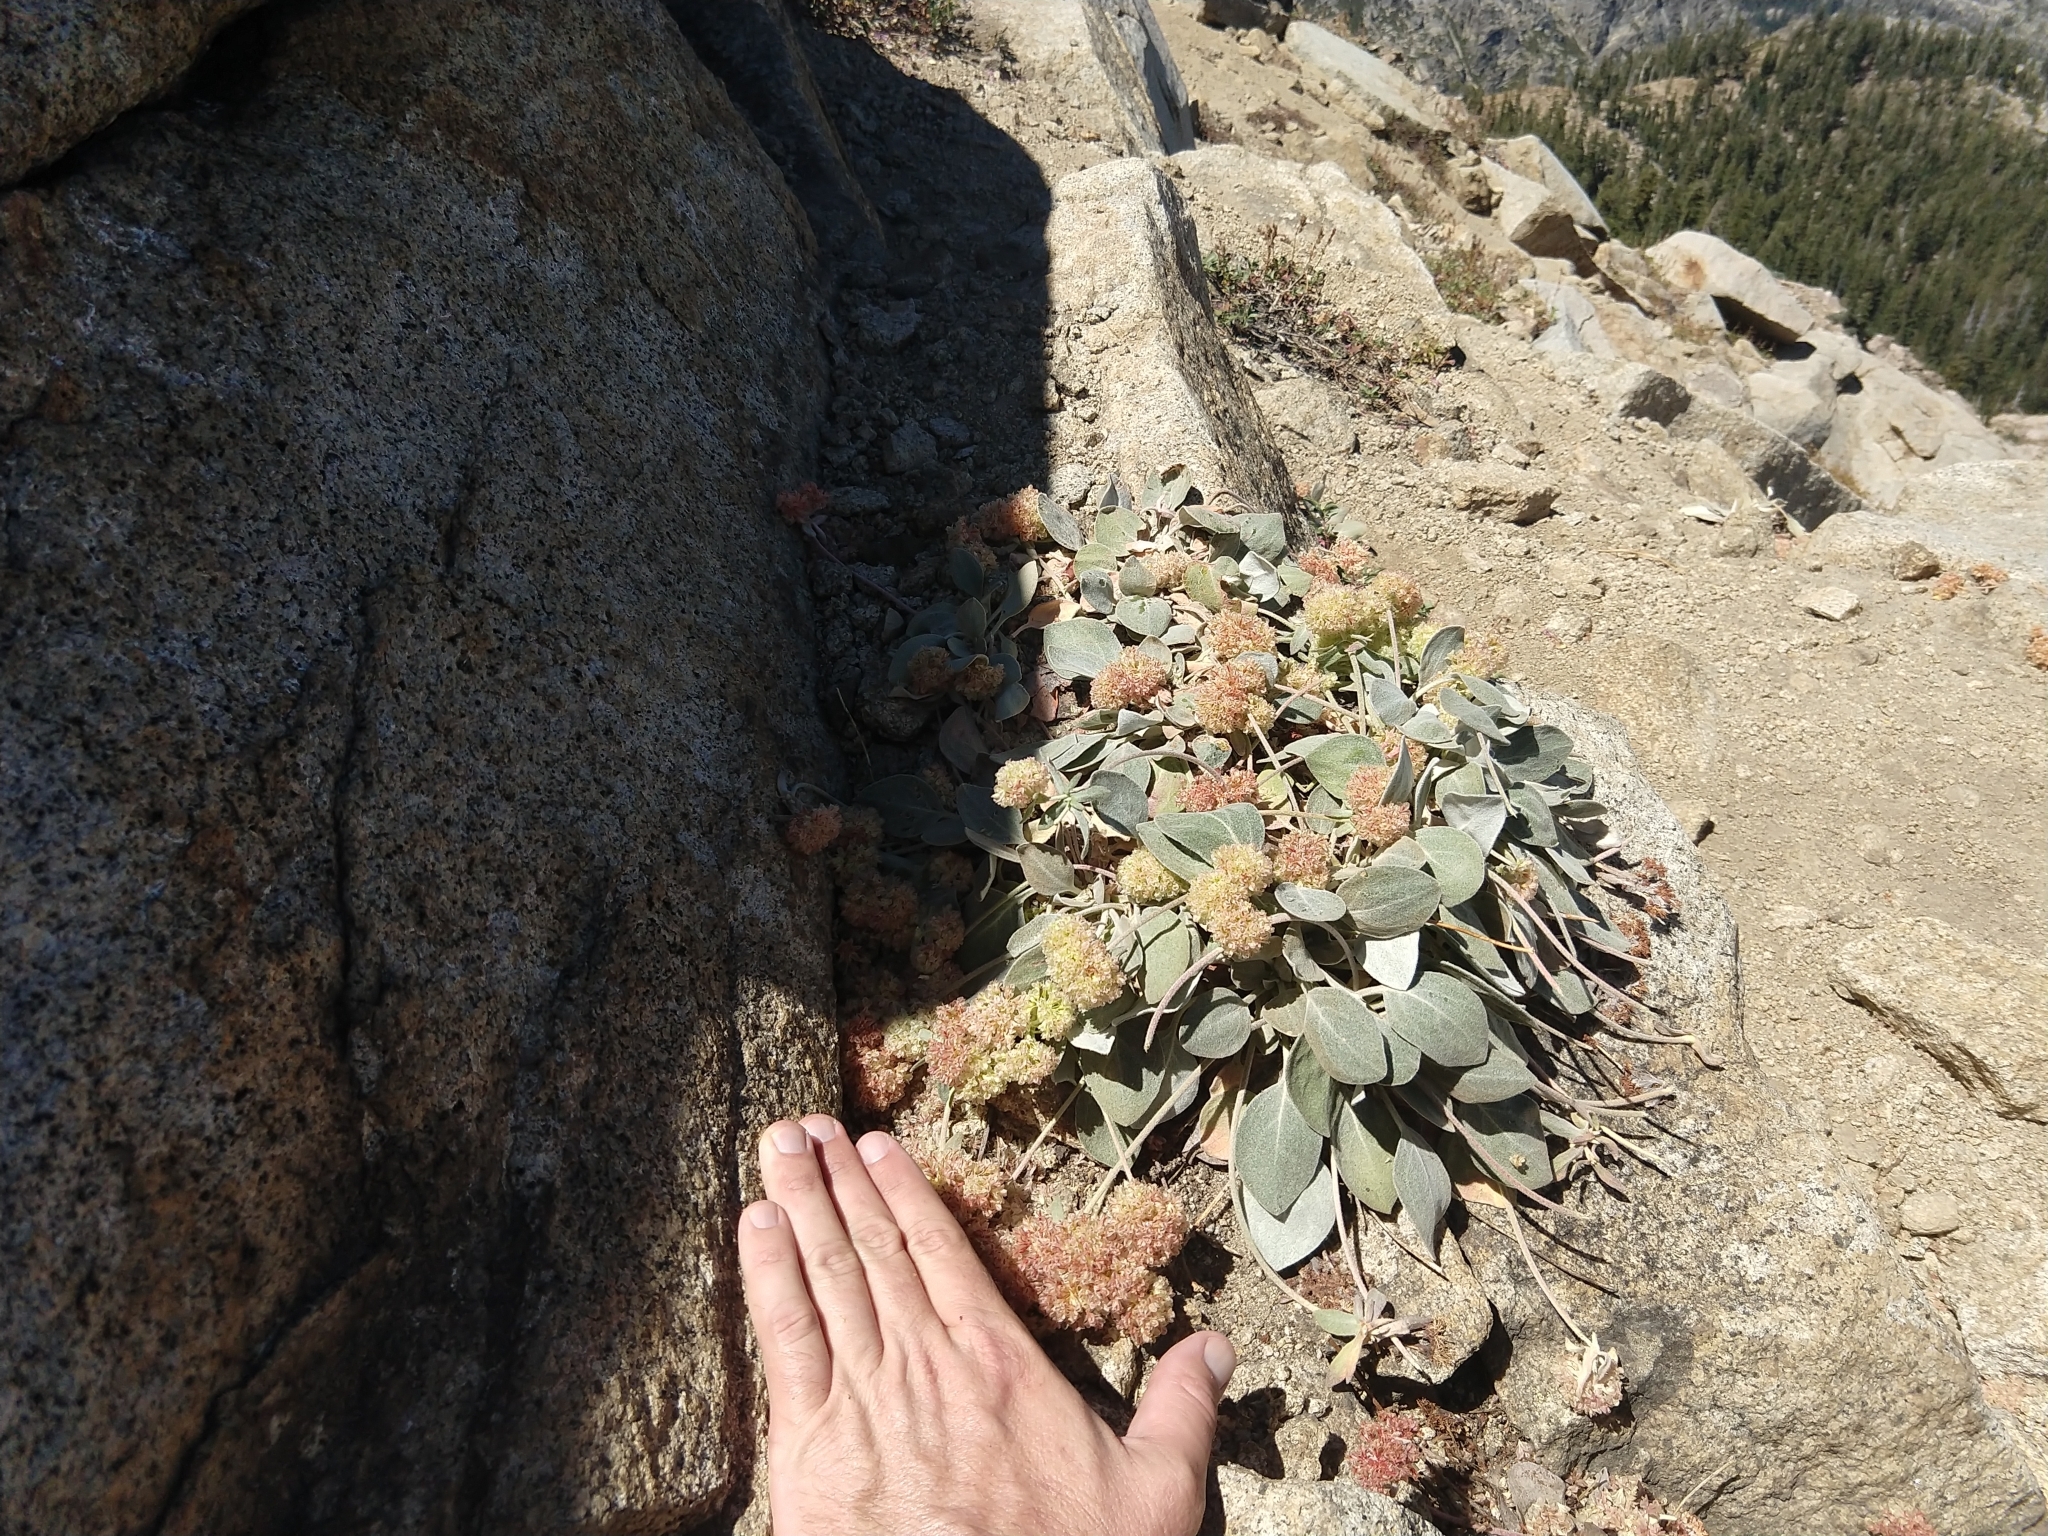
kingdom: Plantae
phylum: Tracheophyta
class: Magnoliopsida
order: Caryophyllales
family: Polygonaceae
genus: Eriogonum
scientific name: Eriogonum lobbii
